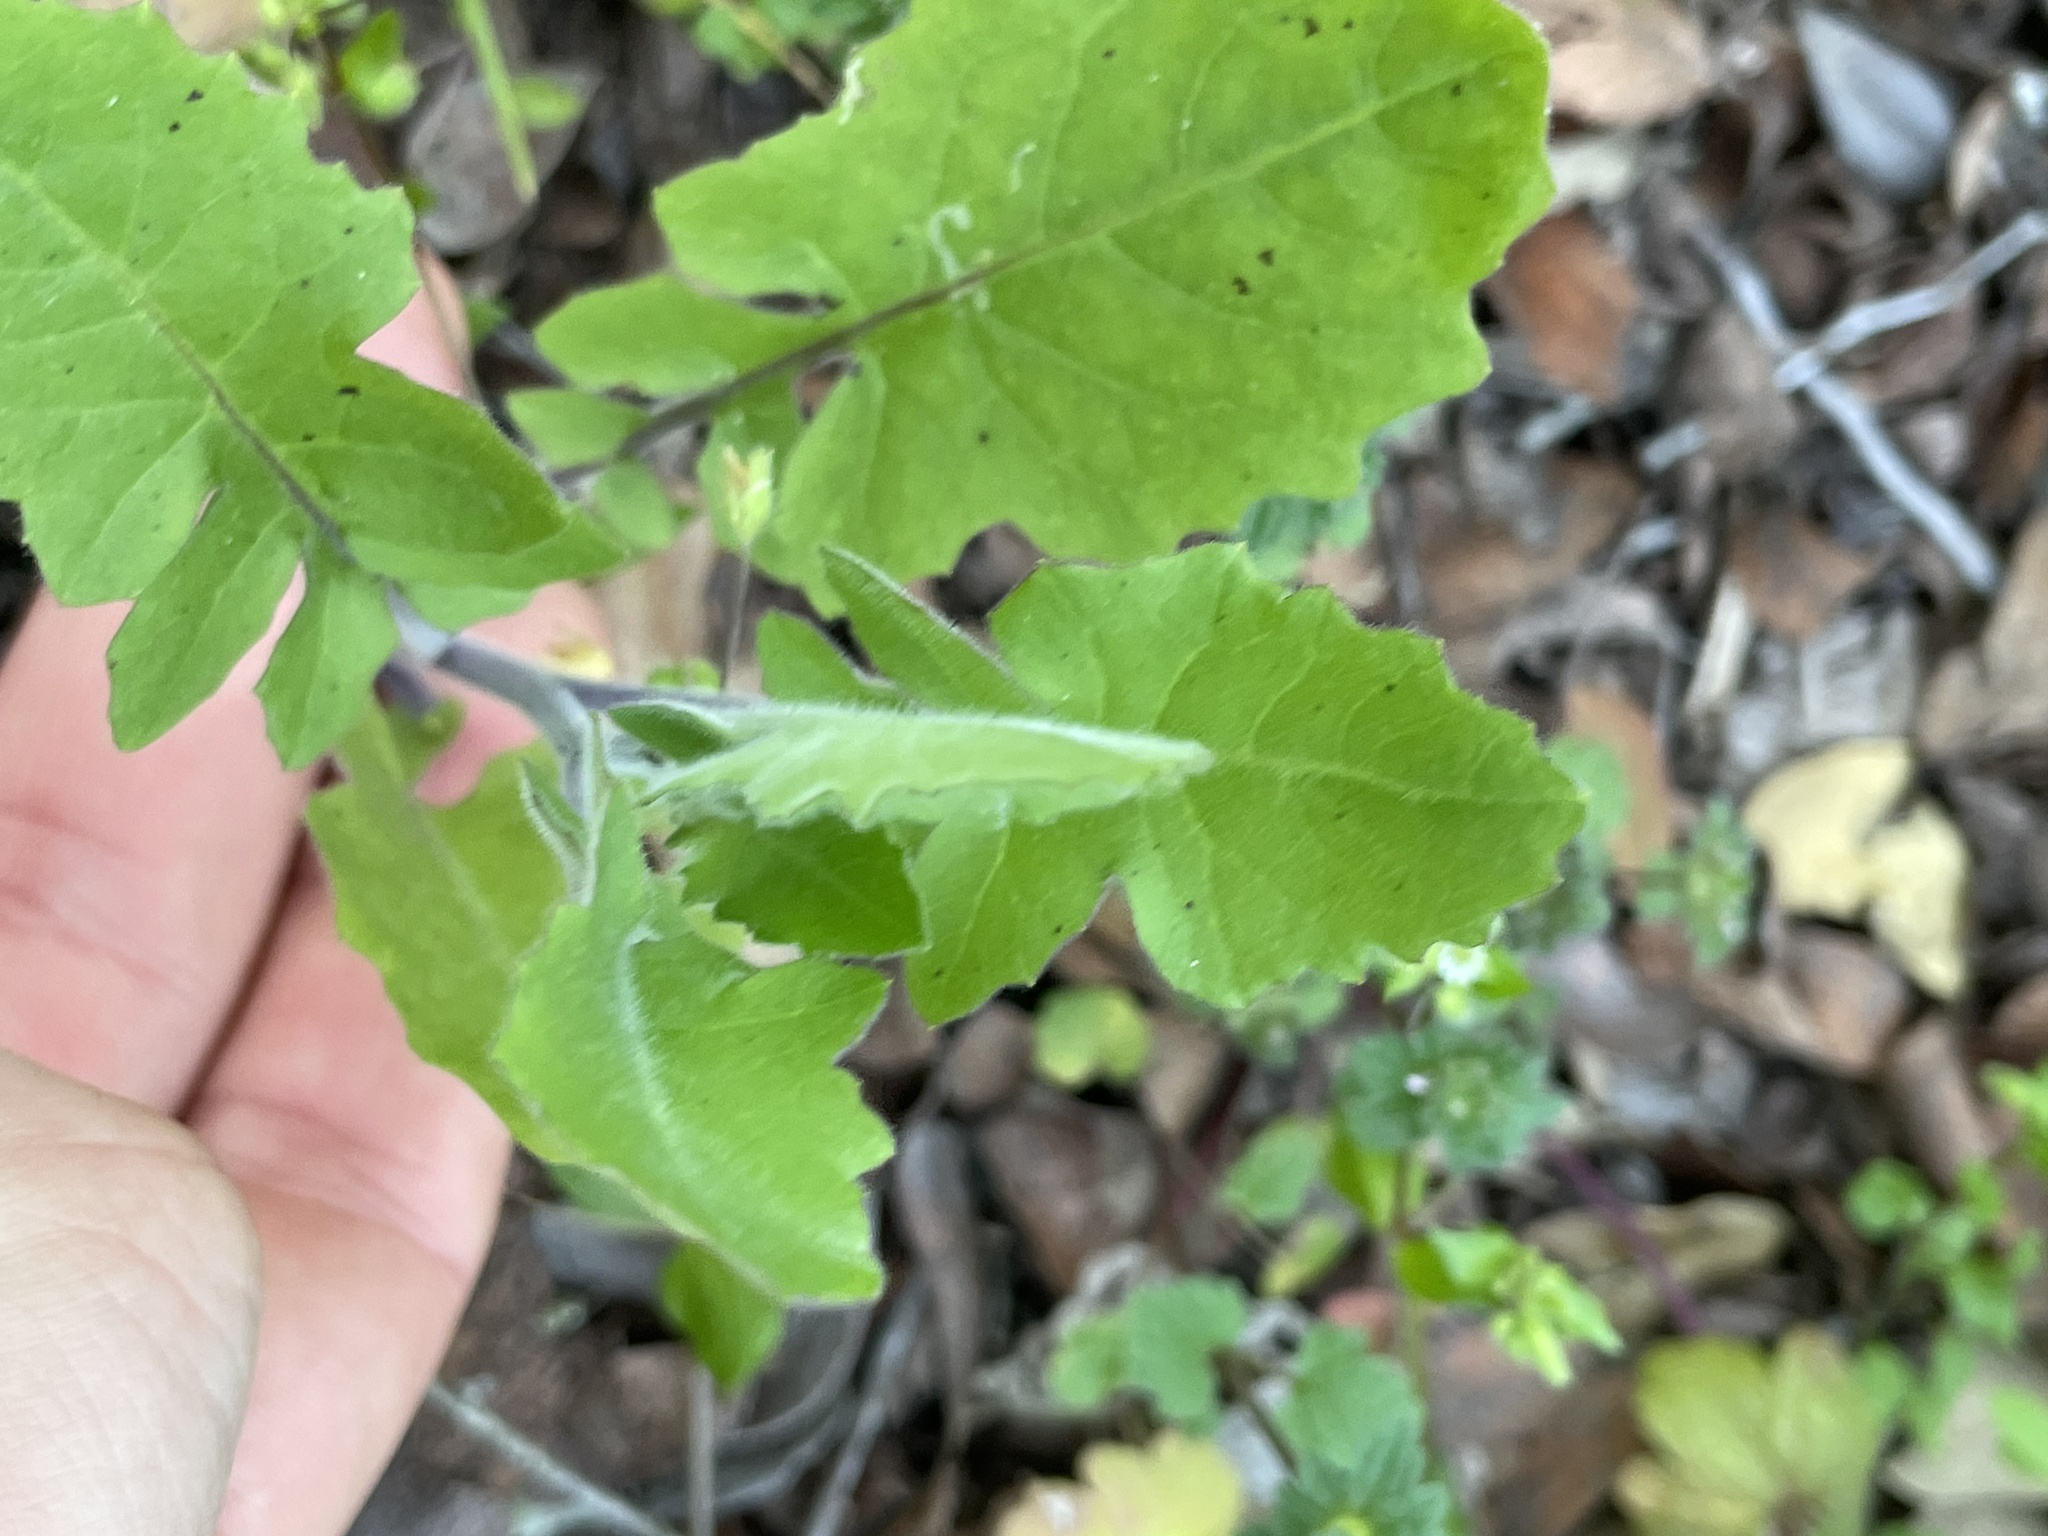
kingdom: Plantae
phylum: Tracheophyta
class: Magnoliopsida
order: Brassicales
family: Brassicaceae
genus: Streptanthus
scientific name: Streptanthus petiolaris
